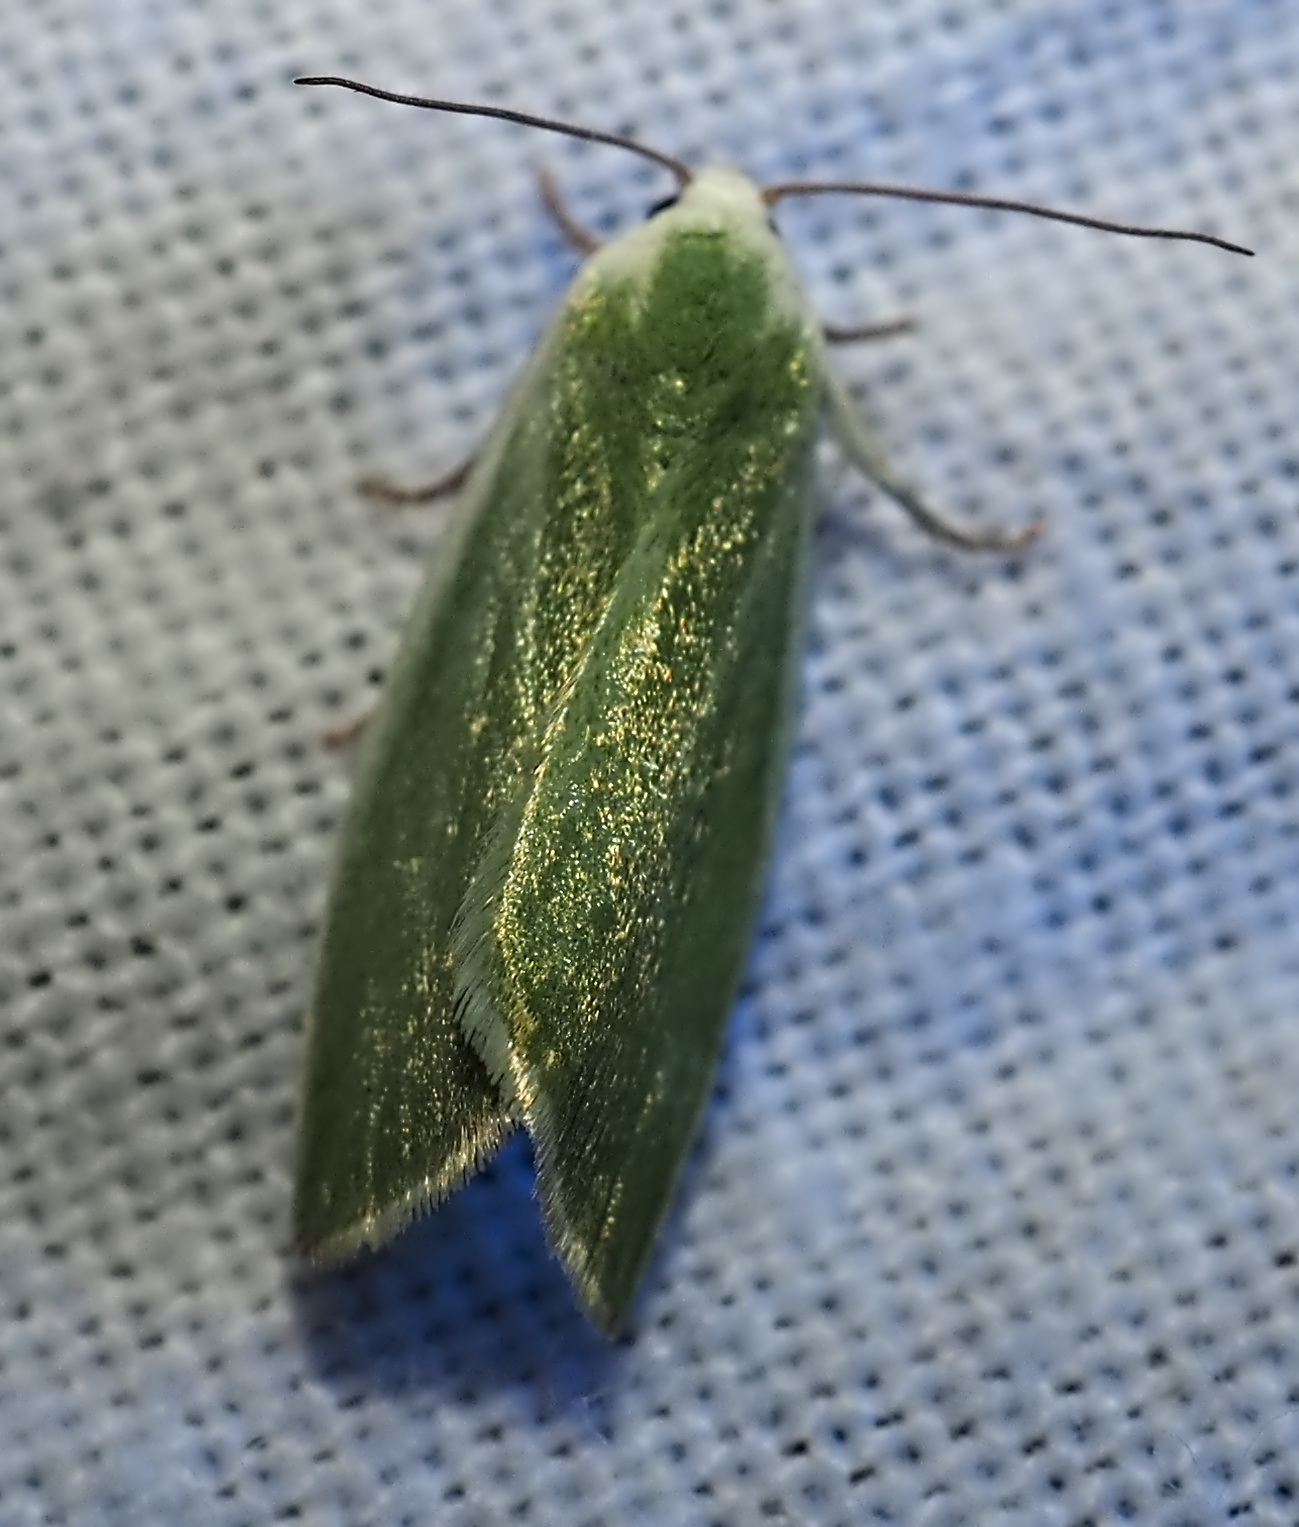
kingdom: Animalia
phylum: Arthropoda
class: Insecta
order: Lepidoptera
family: Nolidae
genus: Earias
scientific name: Earias clorana
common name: Cream-bordered green pea
